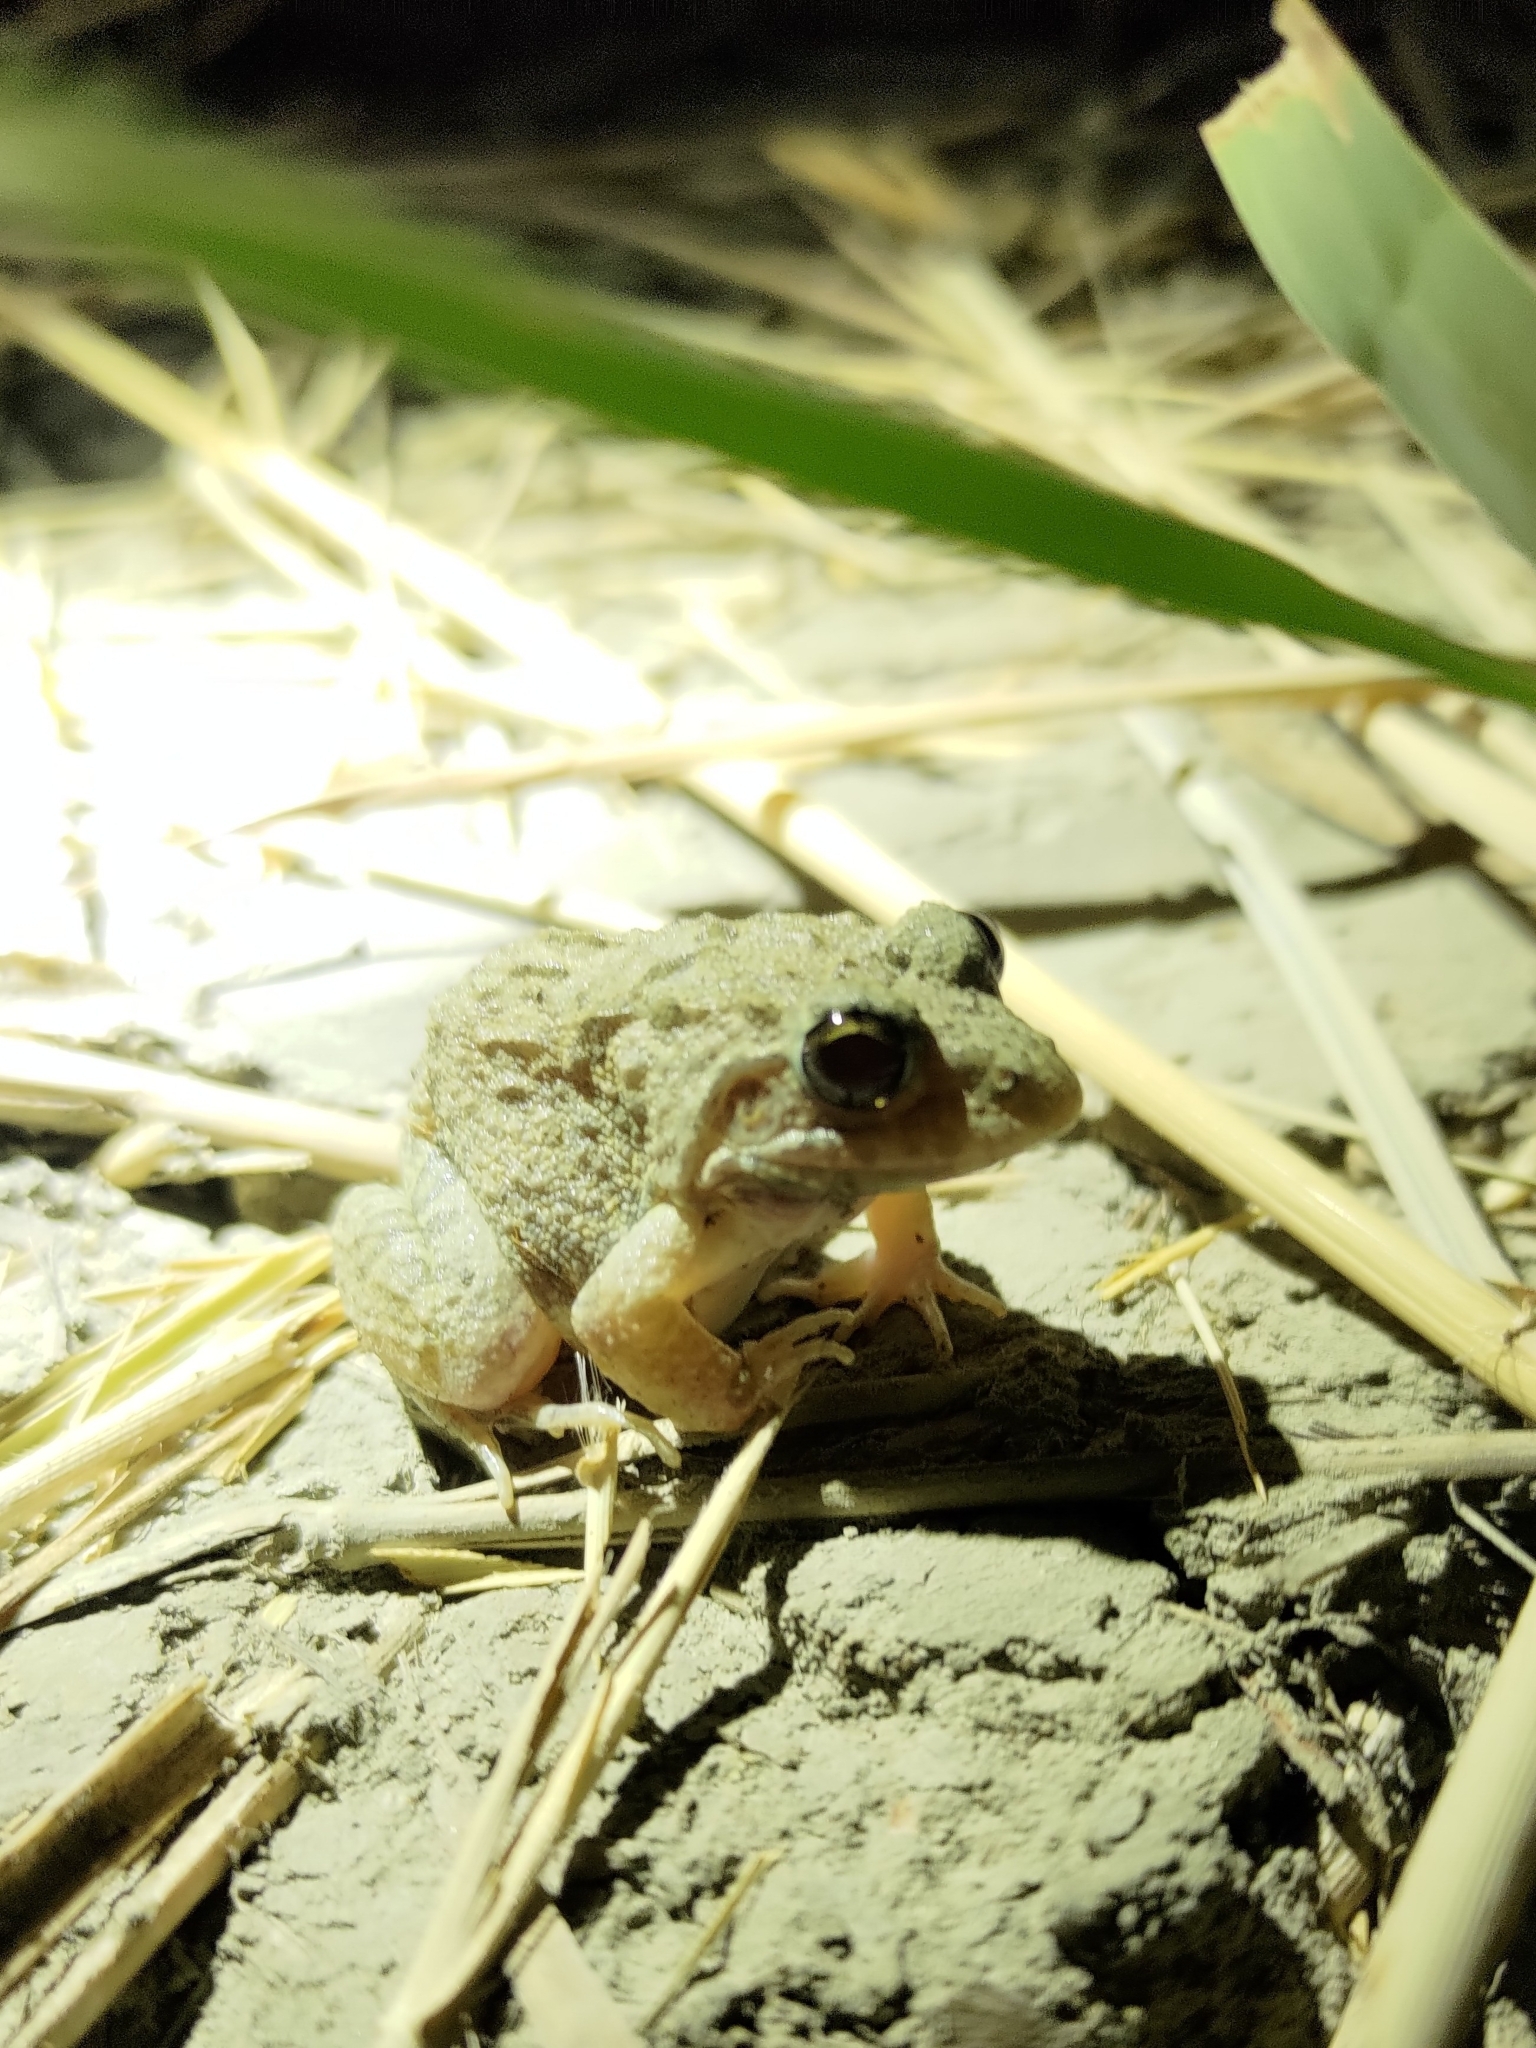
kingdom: Animalia
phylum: Chordata
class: Amphibia
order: Anura
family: Dicroglossidae
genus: Fejervarya
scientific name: Fejervarya limnocharis
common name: Asian grass frog/common pond frog/field frog/grass frog/indian rice frog
